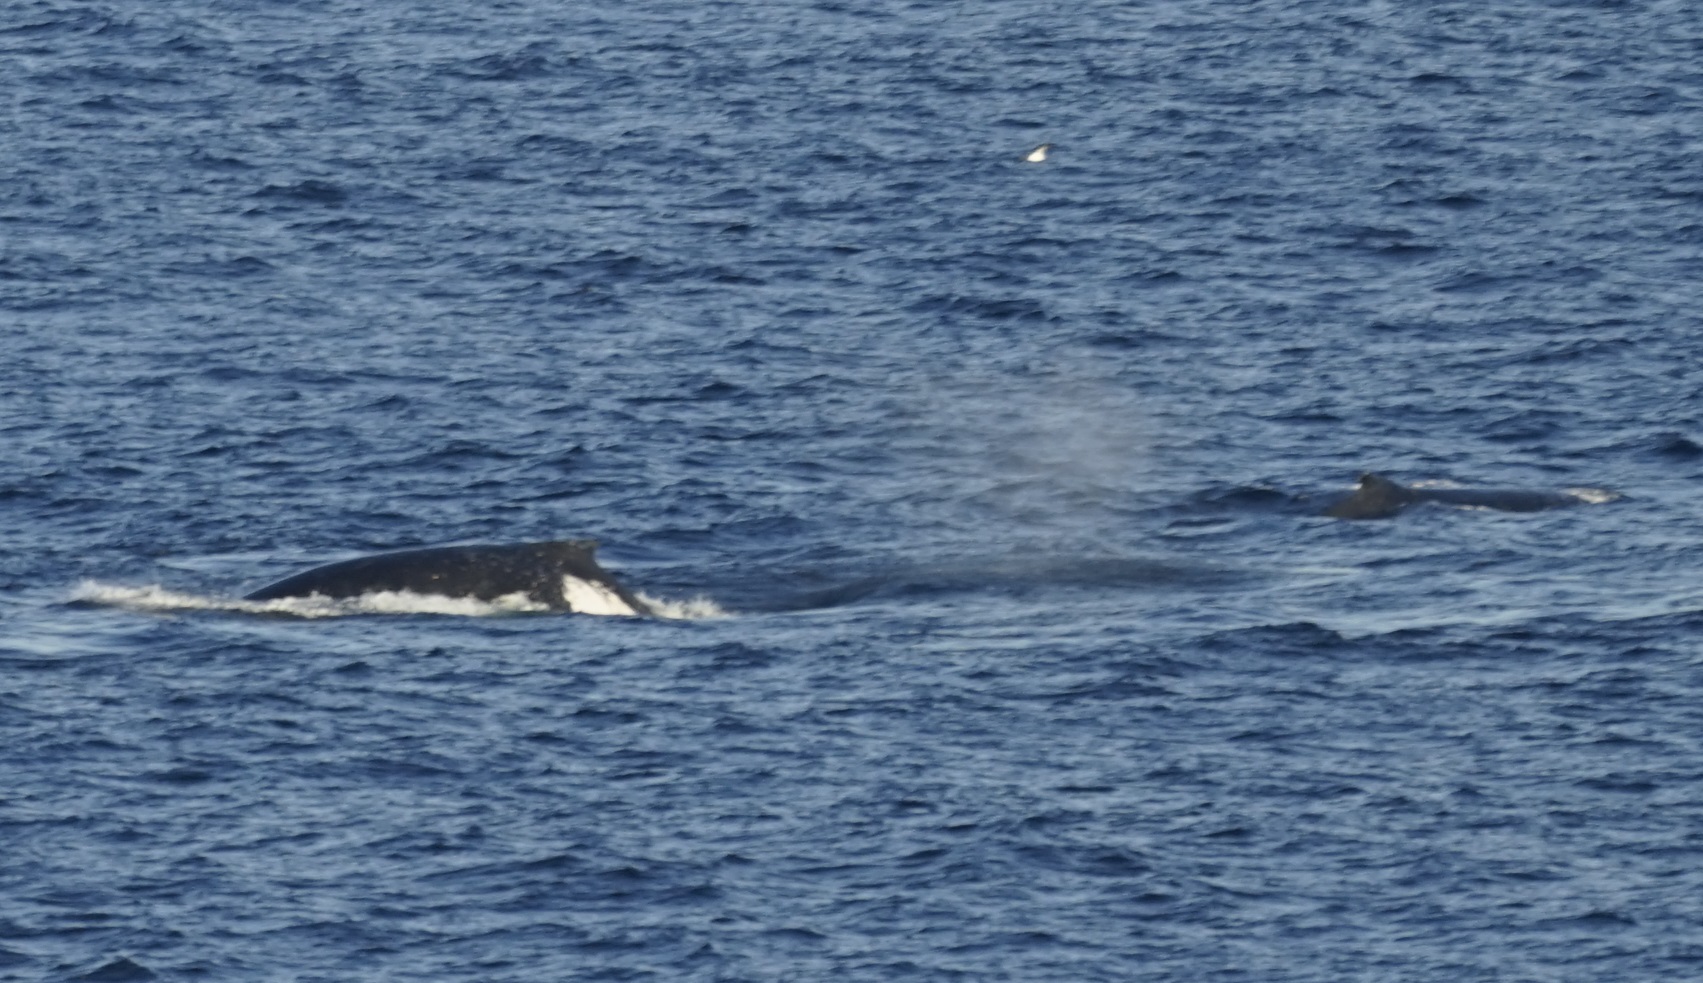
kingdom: Animalia
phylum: Chordata
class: Mammalia
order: Cetacea
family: Balaenopteridae
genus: Megaptera
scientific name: Megaptera novaeangliae
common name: Humpback whale
